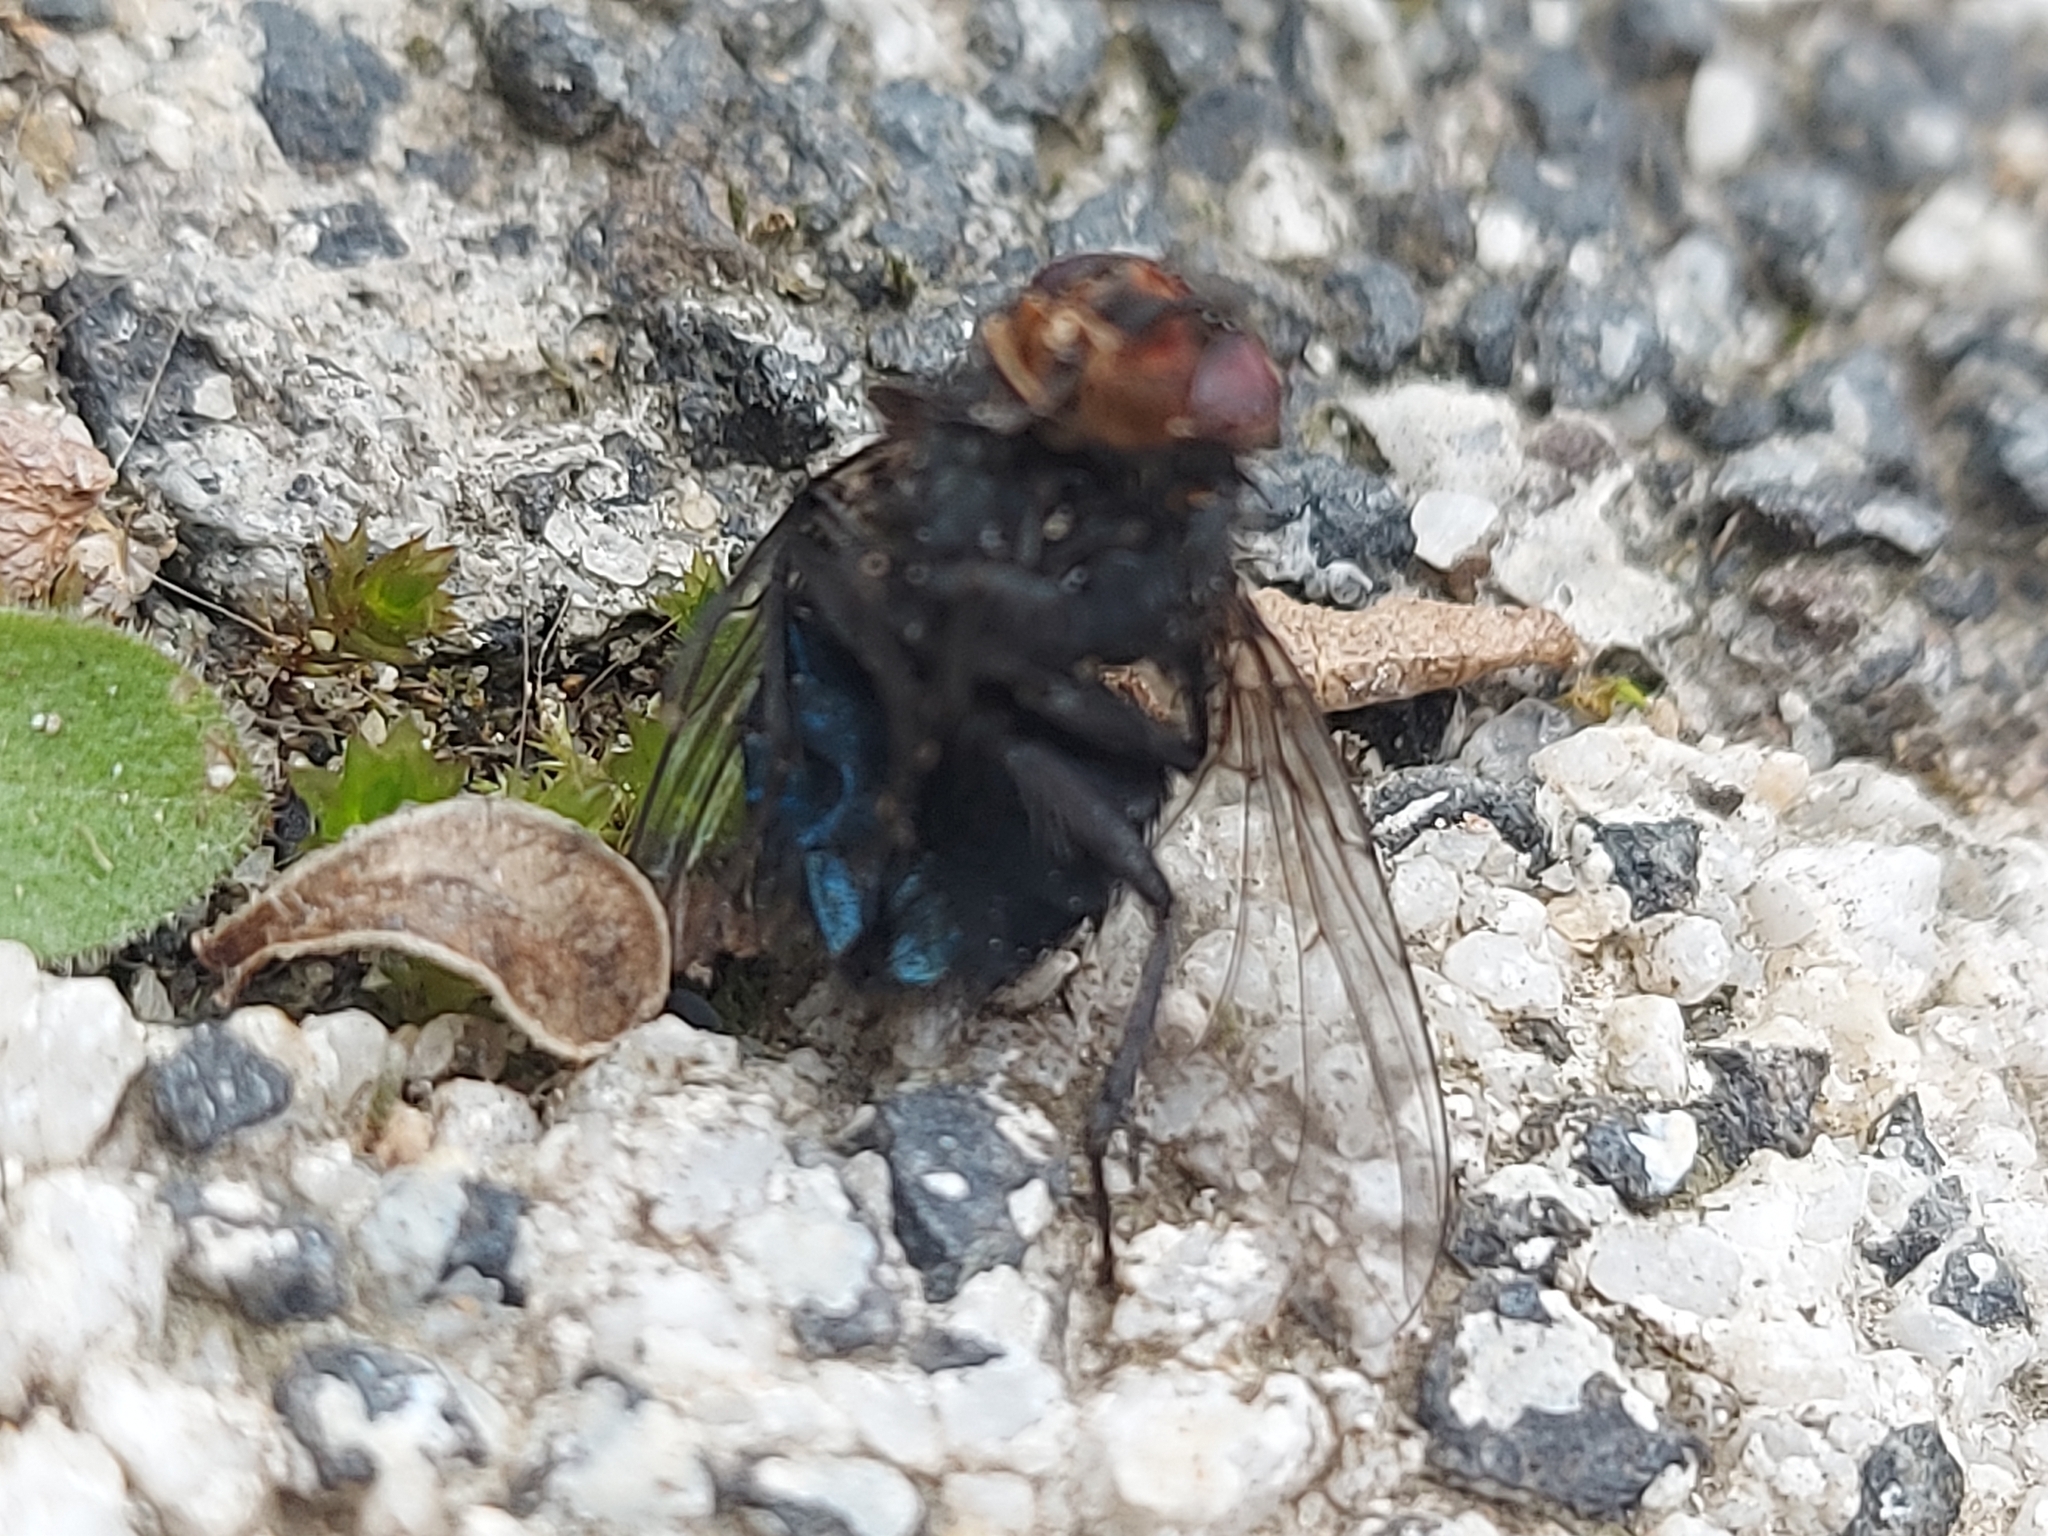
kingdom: Animalia
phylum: Arthropoda
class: Insecta
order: Diptera
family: Calliphoridae
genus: Calliphora
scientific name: Calliphora vicina
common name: Common blow flie
